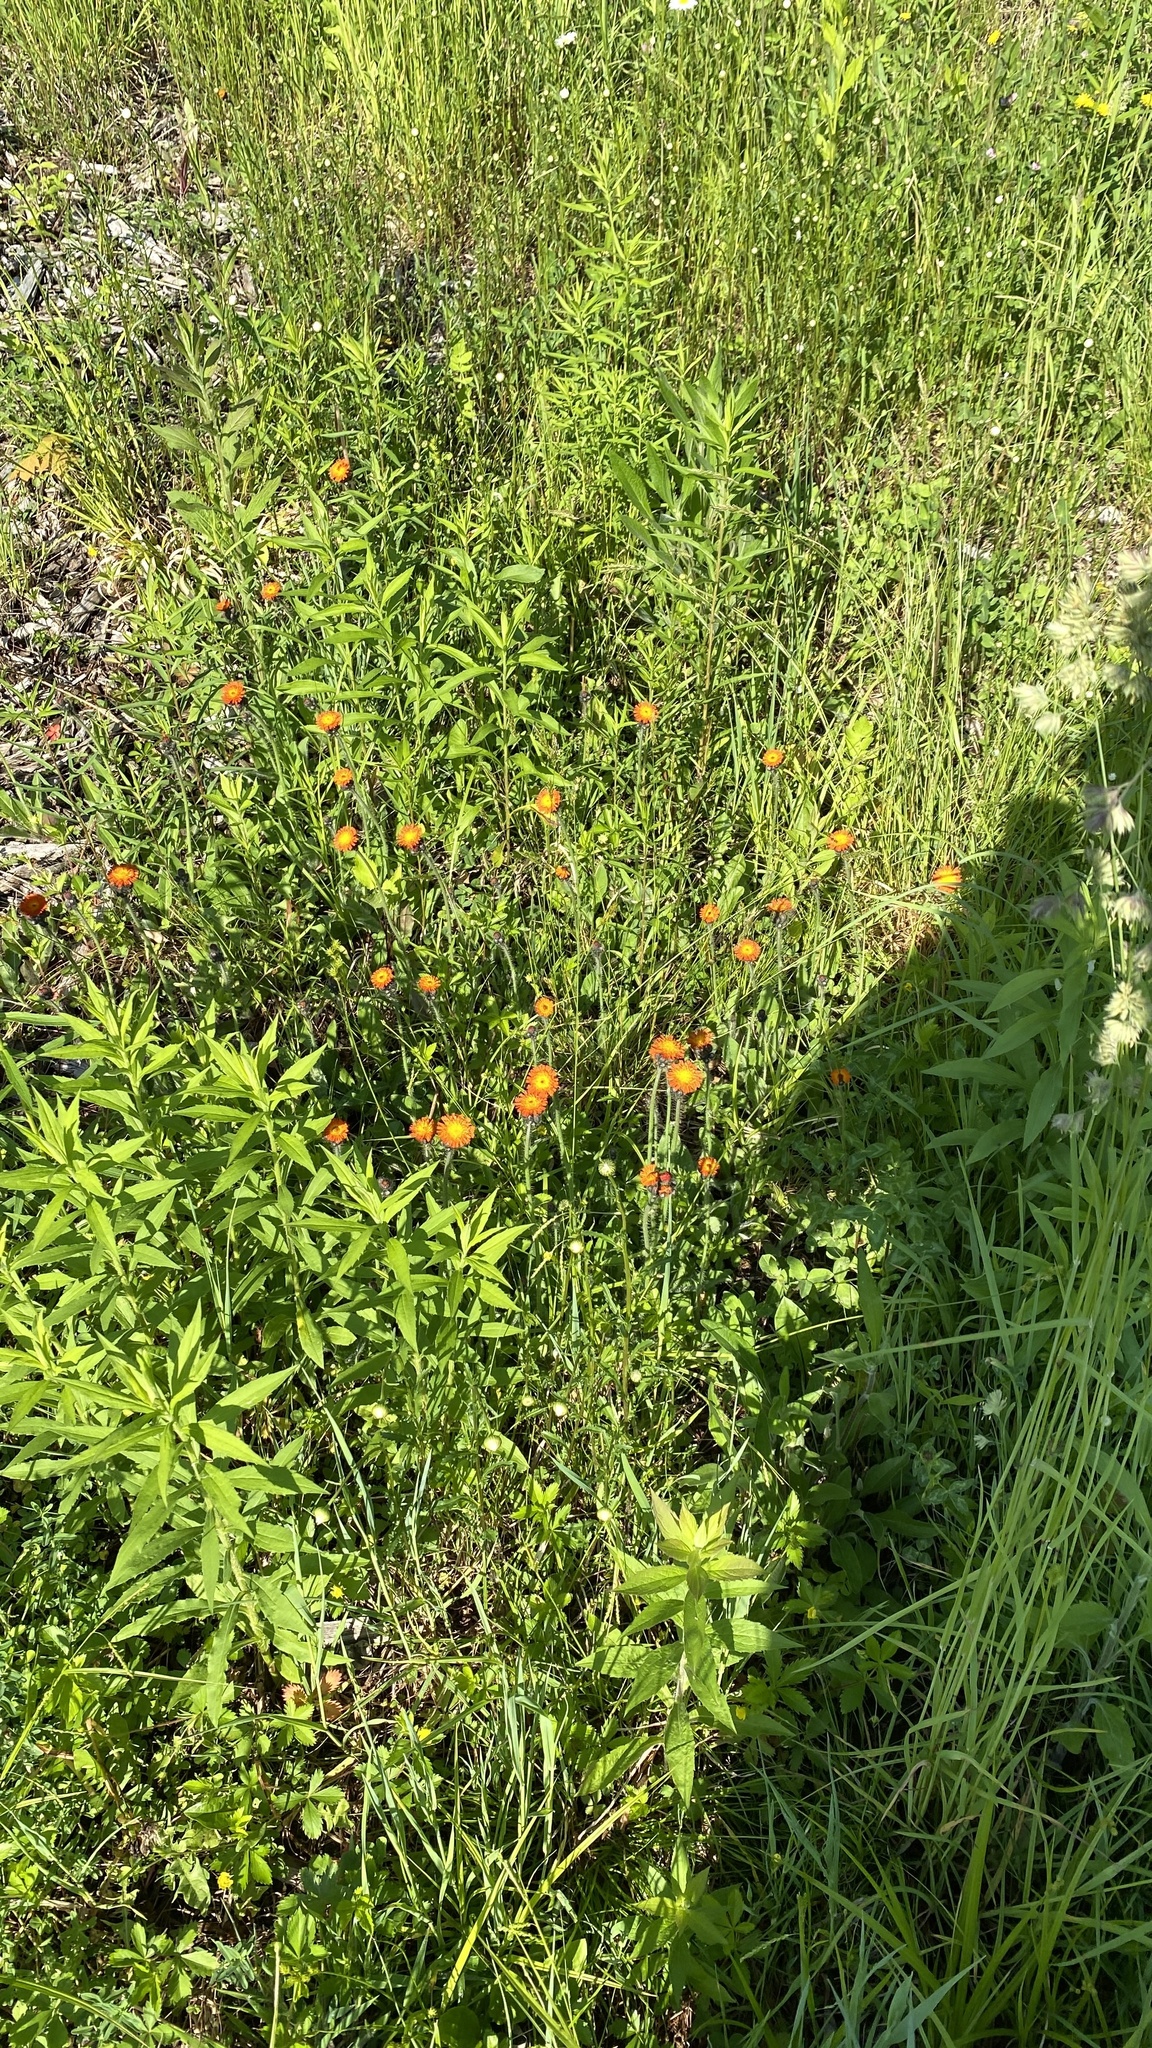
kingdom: Plantae
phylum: Tracheophyta
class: Magnoliopsida
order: Asterales
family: Asteraceae
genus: Pilosella
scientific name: Pilosella aurantiaca
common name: Fox-and-cubs
